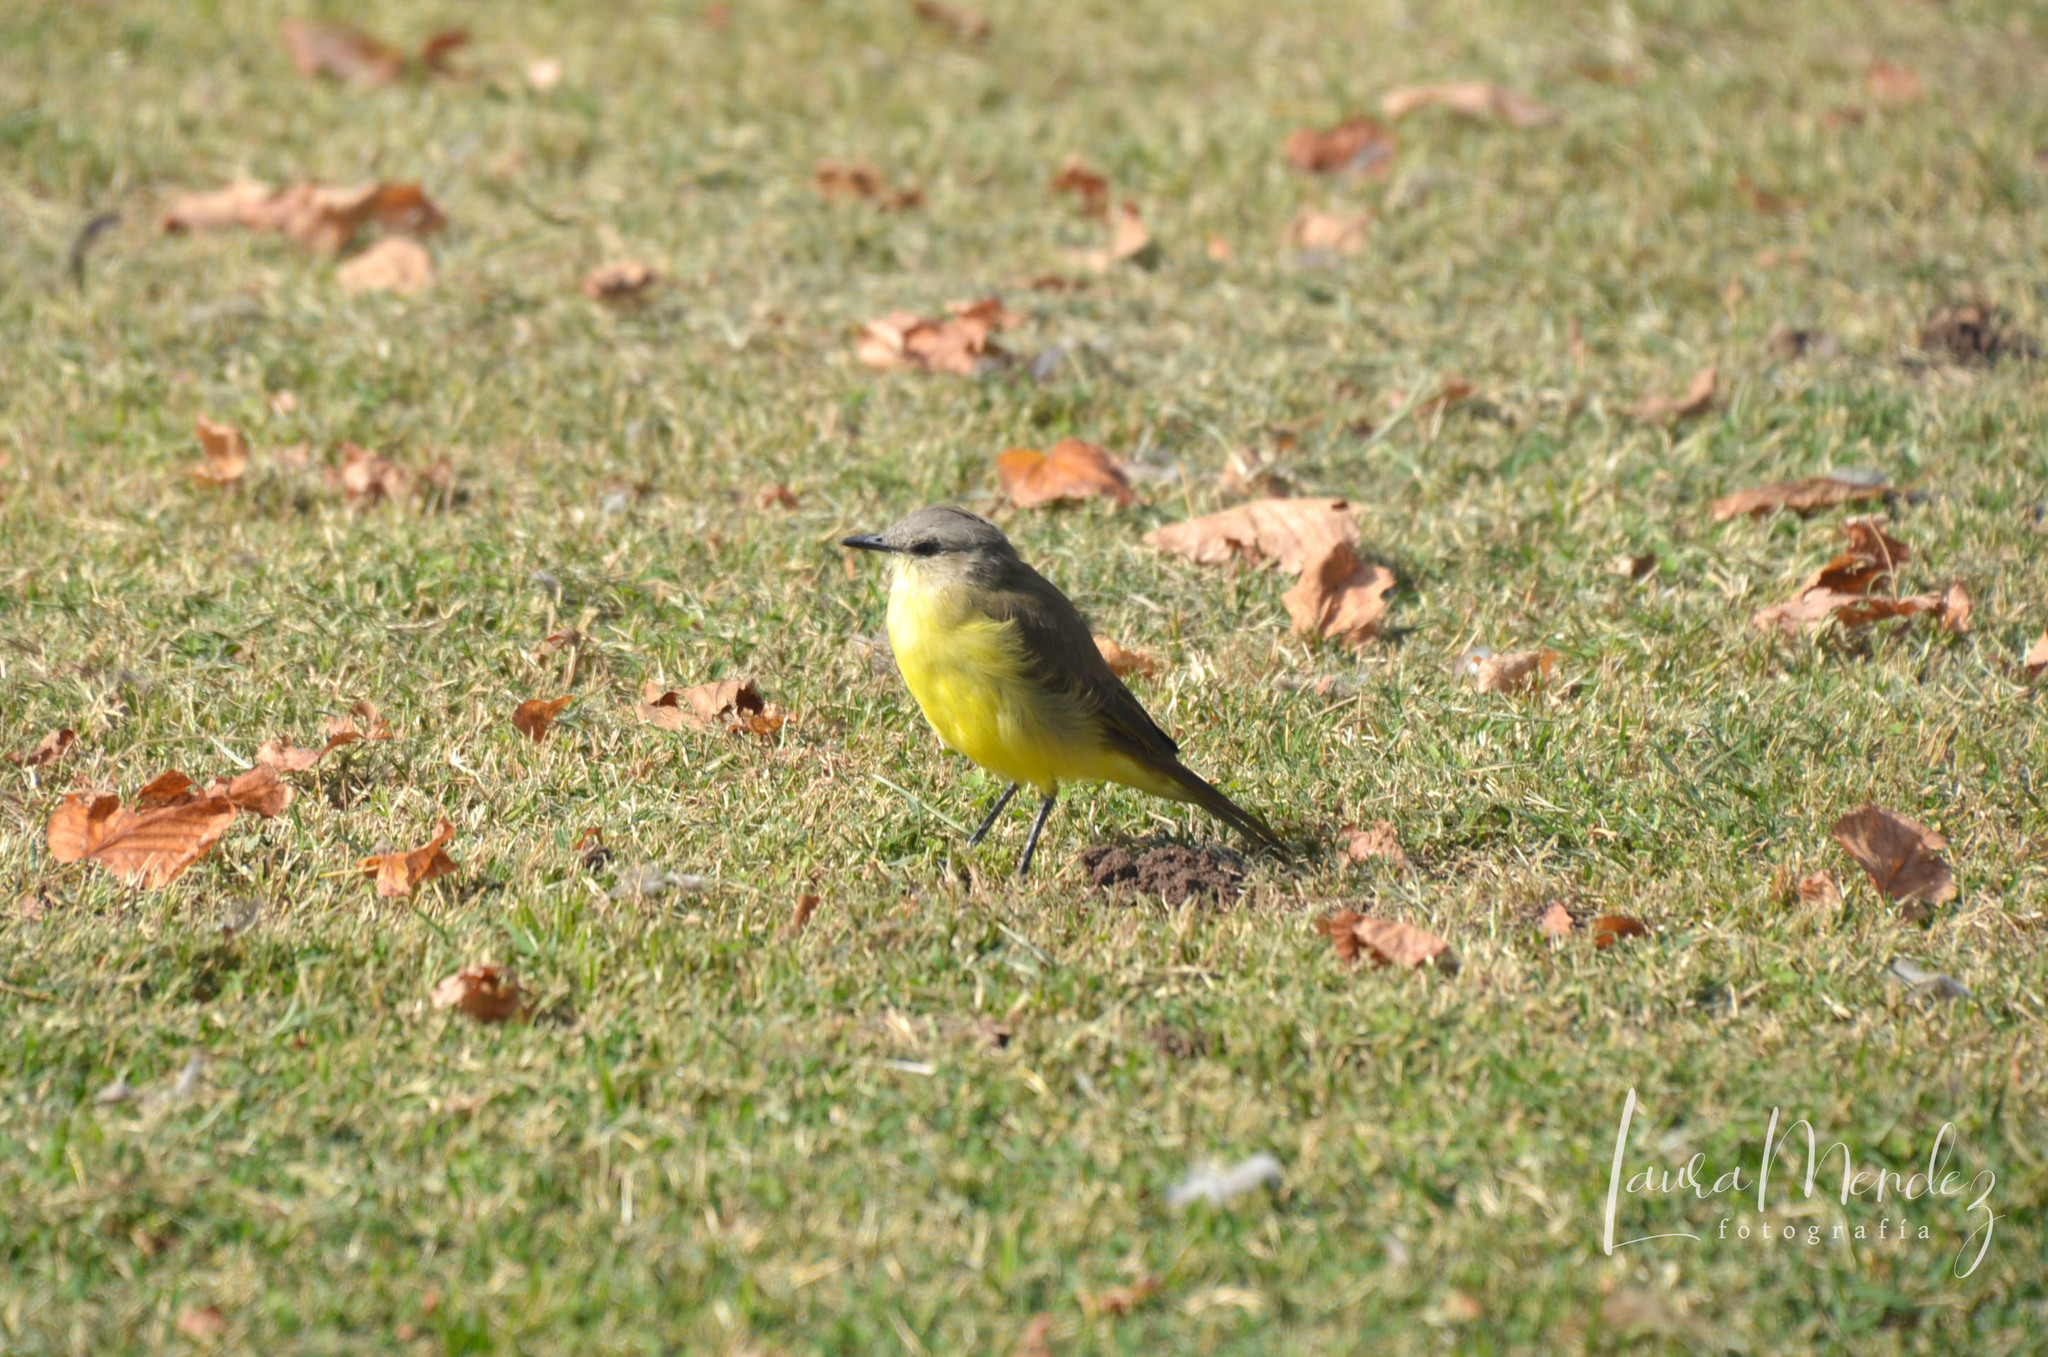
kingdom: Animalia
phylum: Chordata
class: Aves
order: Passeriformes
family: Tyrannidae
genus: Machetornis
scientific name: Machetornis rixosa
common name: Cattle tyrant
